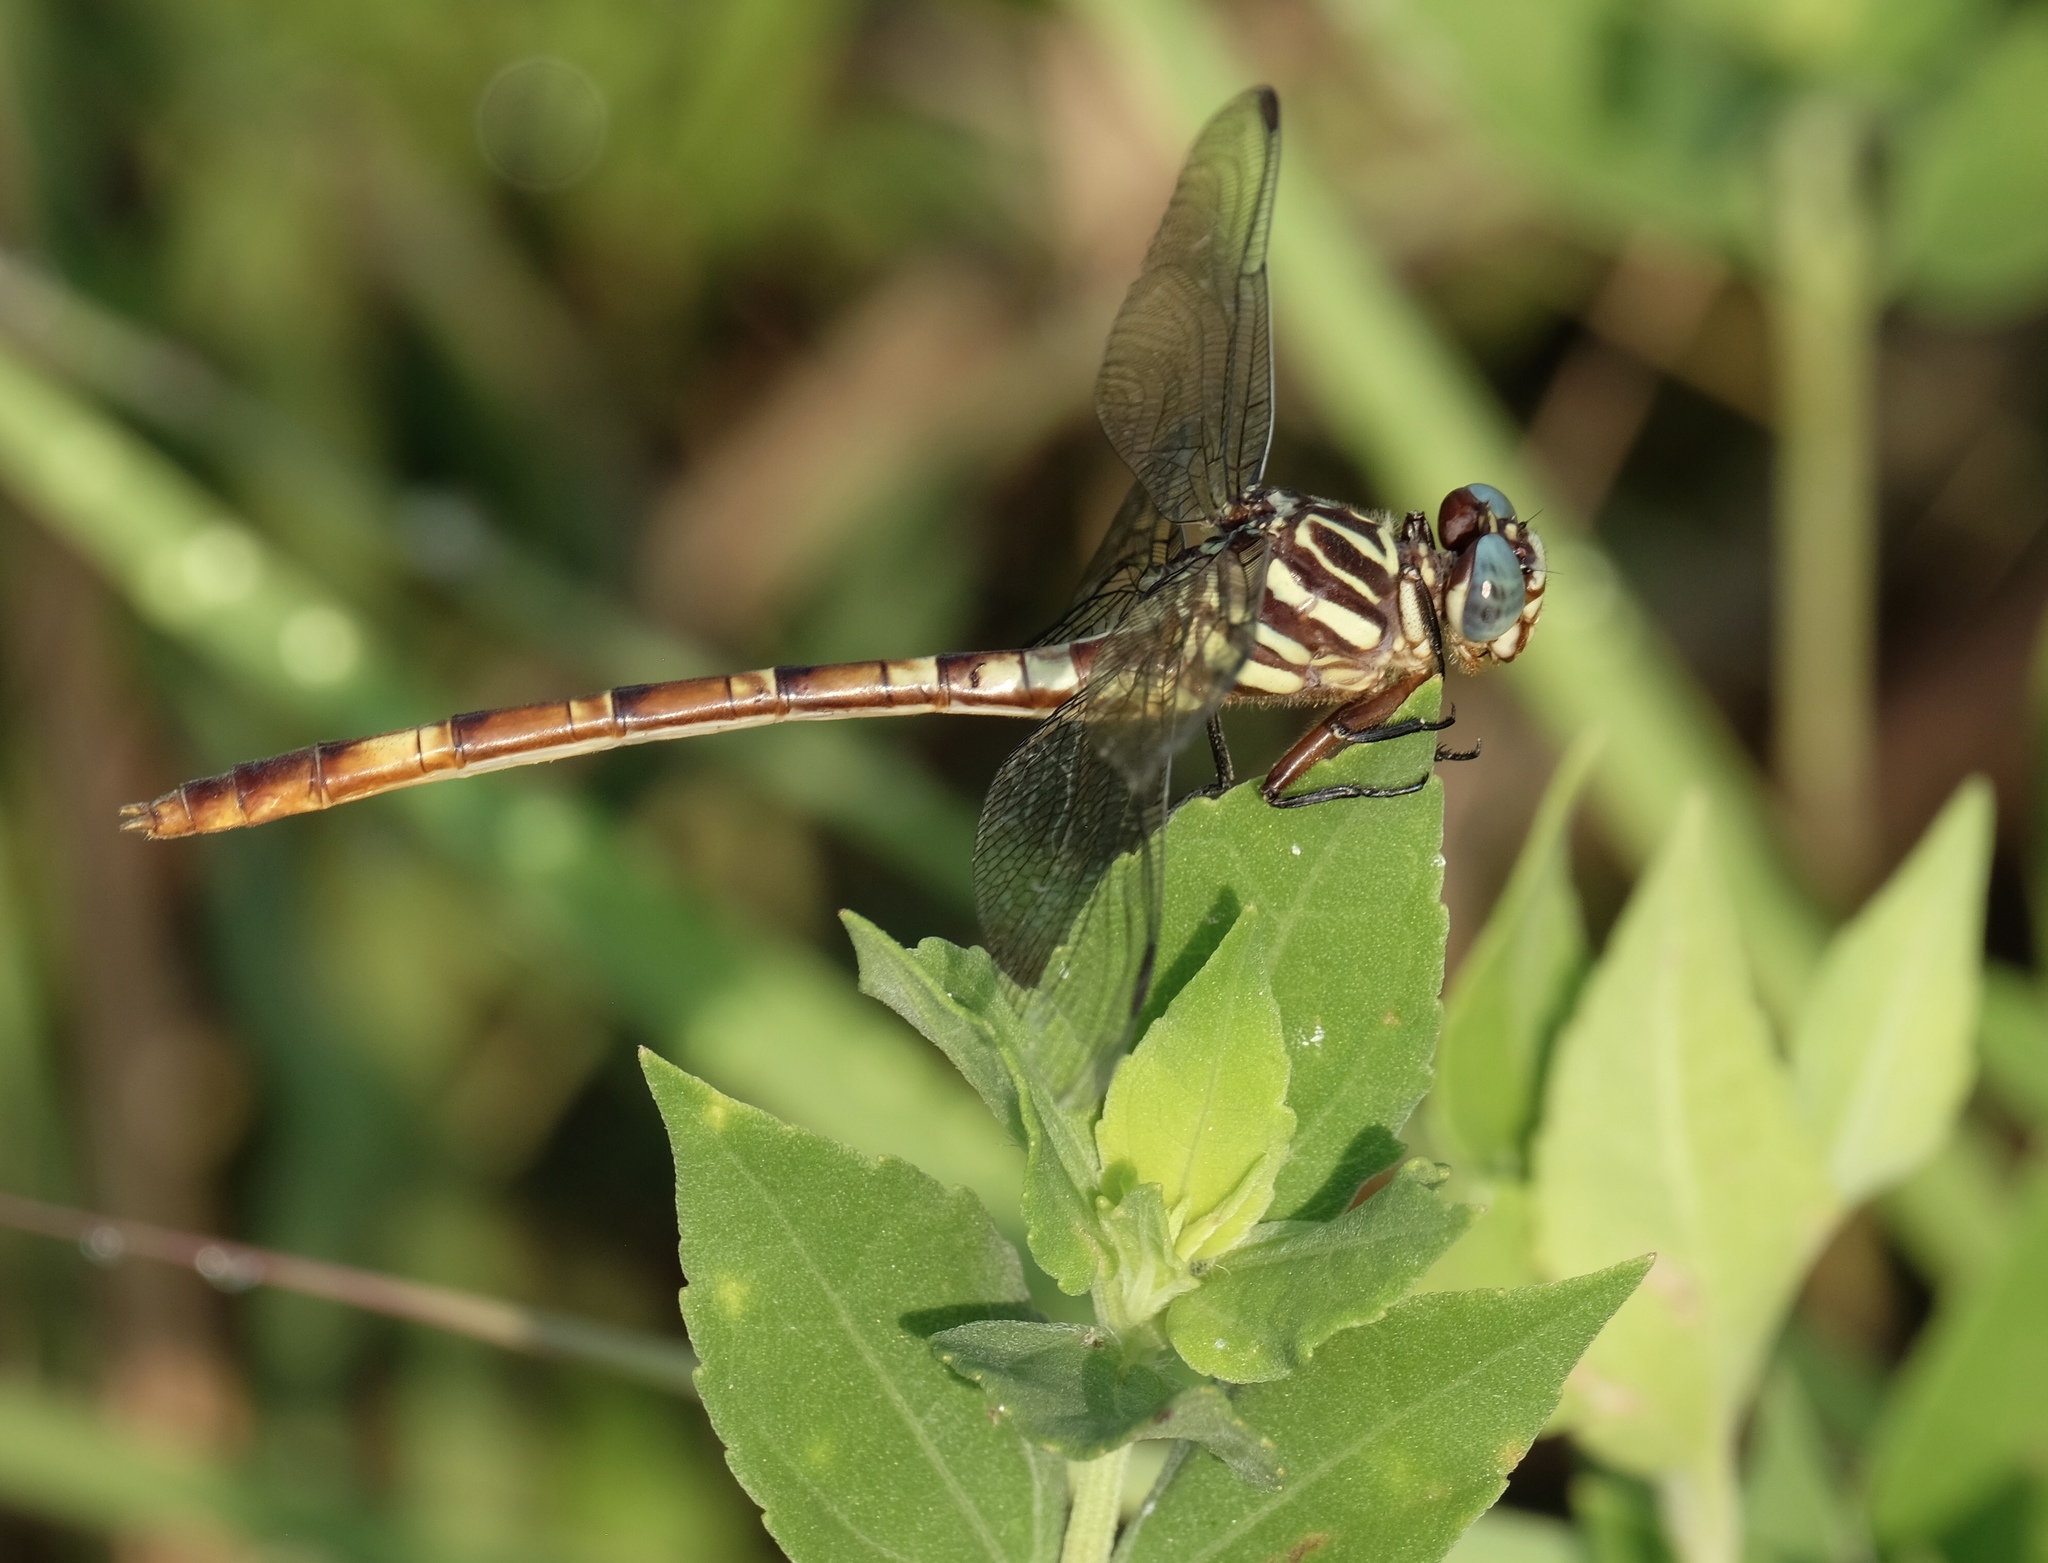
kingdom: Animalia
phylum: Arthropoda
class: Insecta
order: Odonata
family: Gomphidae
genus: Aphylla
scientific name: Aphylla angustifolia
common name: Broad-striped forceptail
